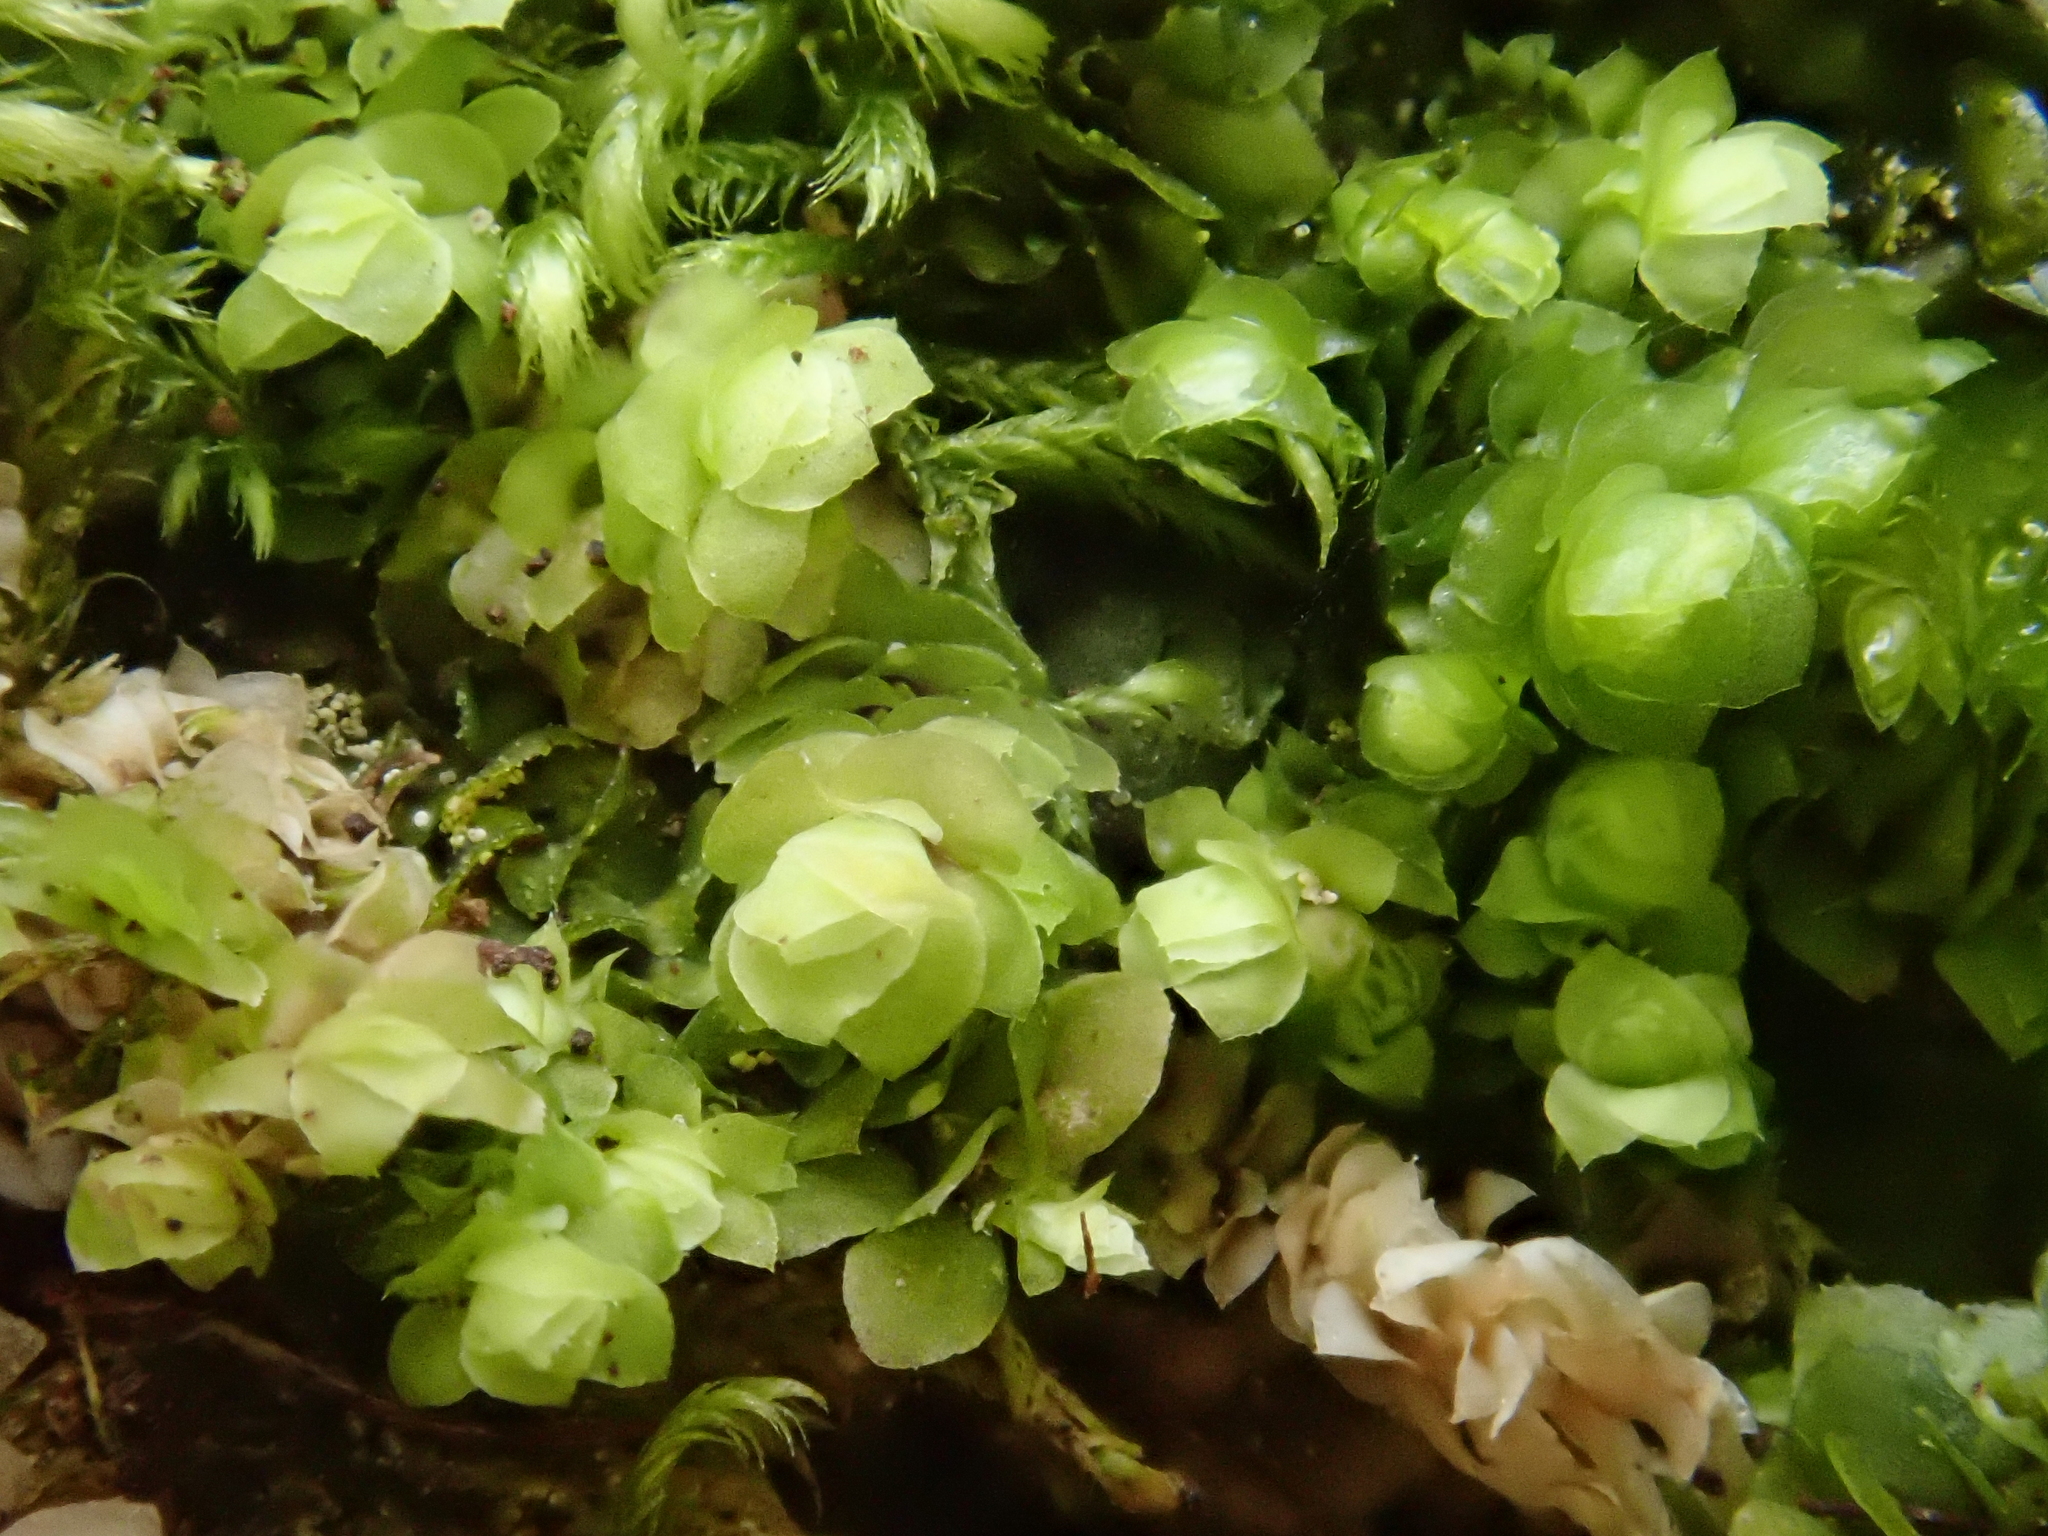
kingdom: Plantae
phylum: Marchantiophyta
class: Jungermanniopsida
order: Jungermanniales
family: Scapaniaceae
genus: Scapania
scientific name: Scapania aspera
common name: Rough earwort
